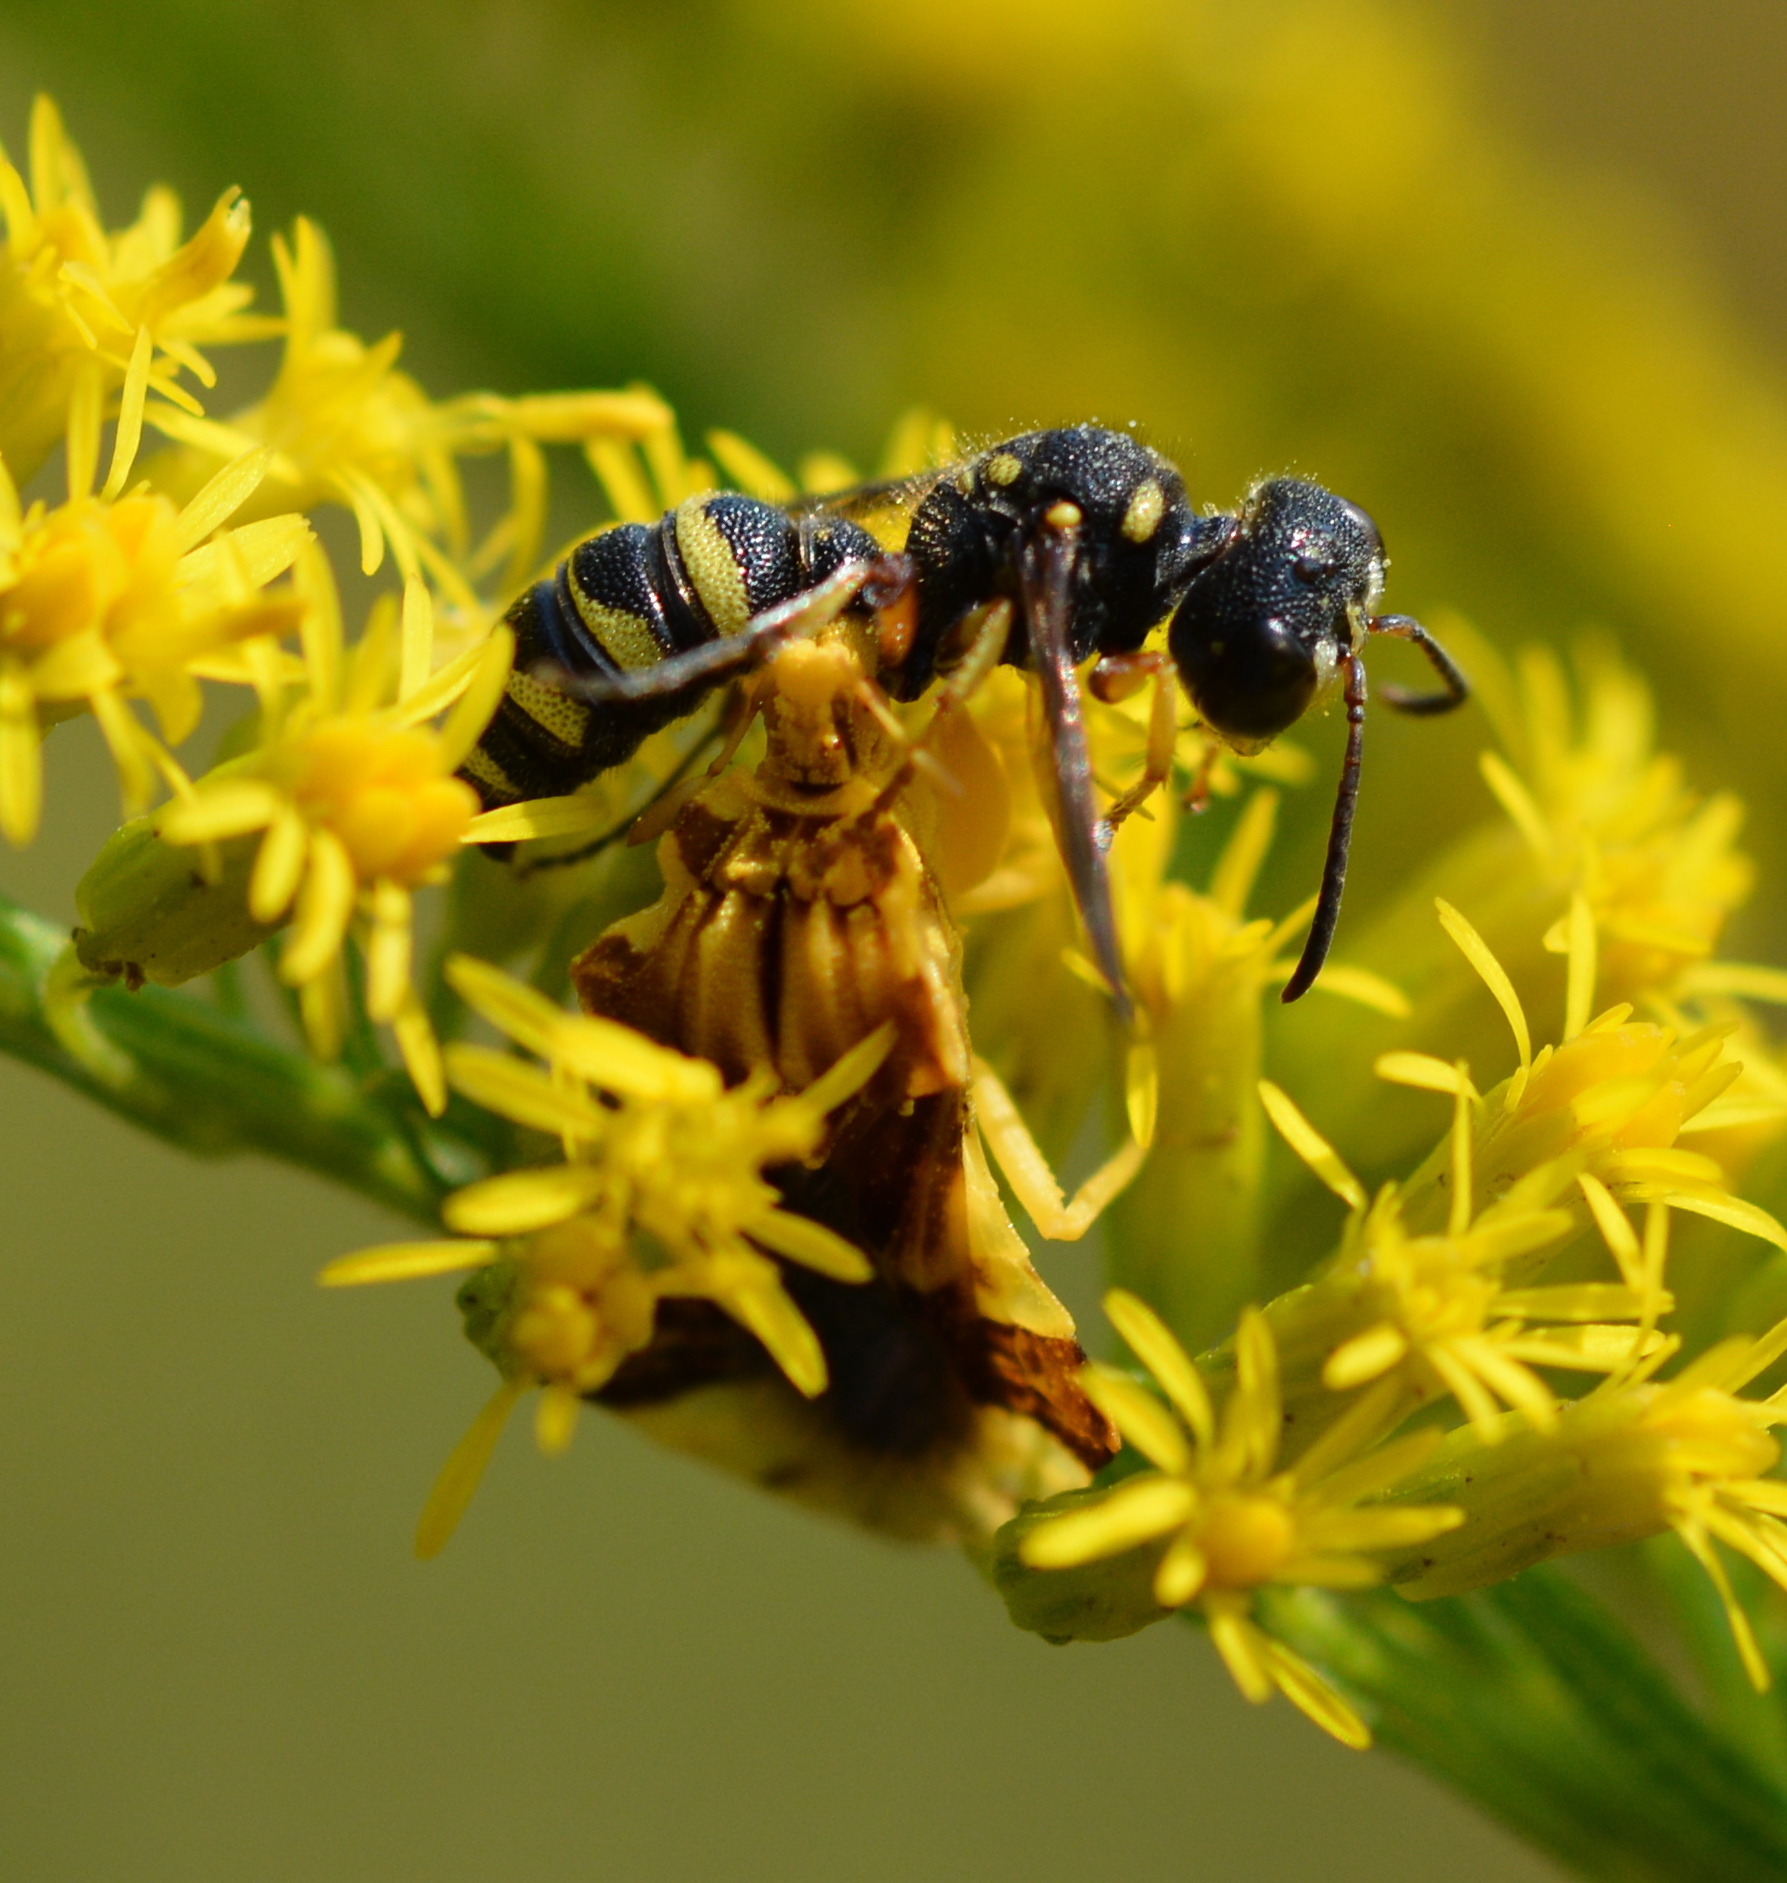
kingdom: Animalia
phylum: Arthropoda
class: Insecta
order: Hemiptera
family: Reduviidae
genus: Phymata
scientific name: Phymata fasciata
